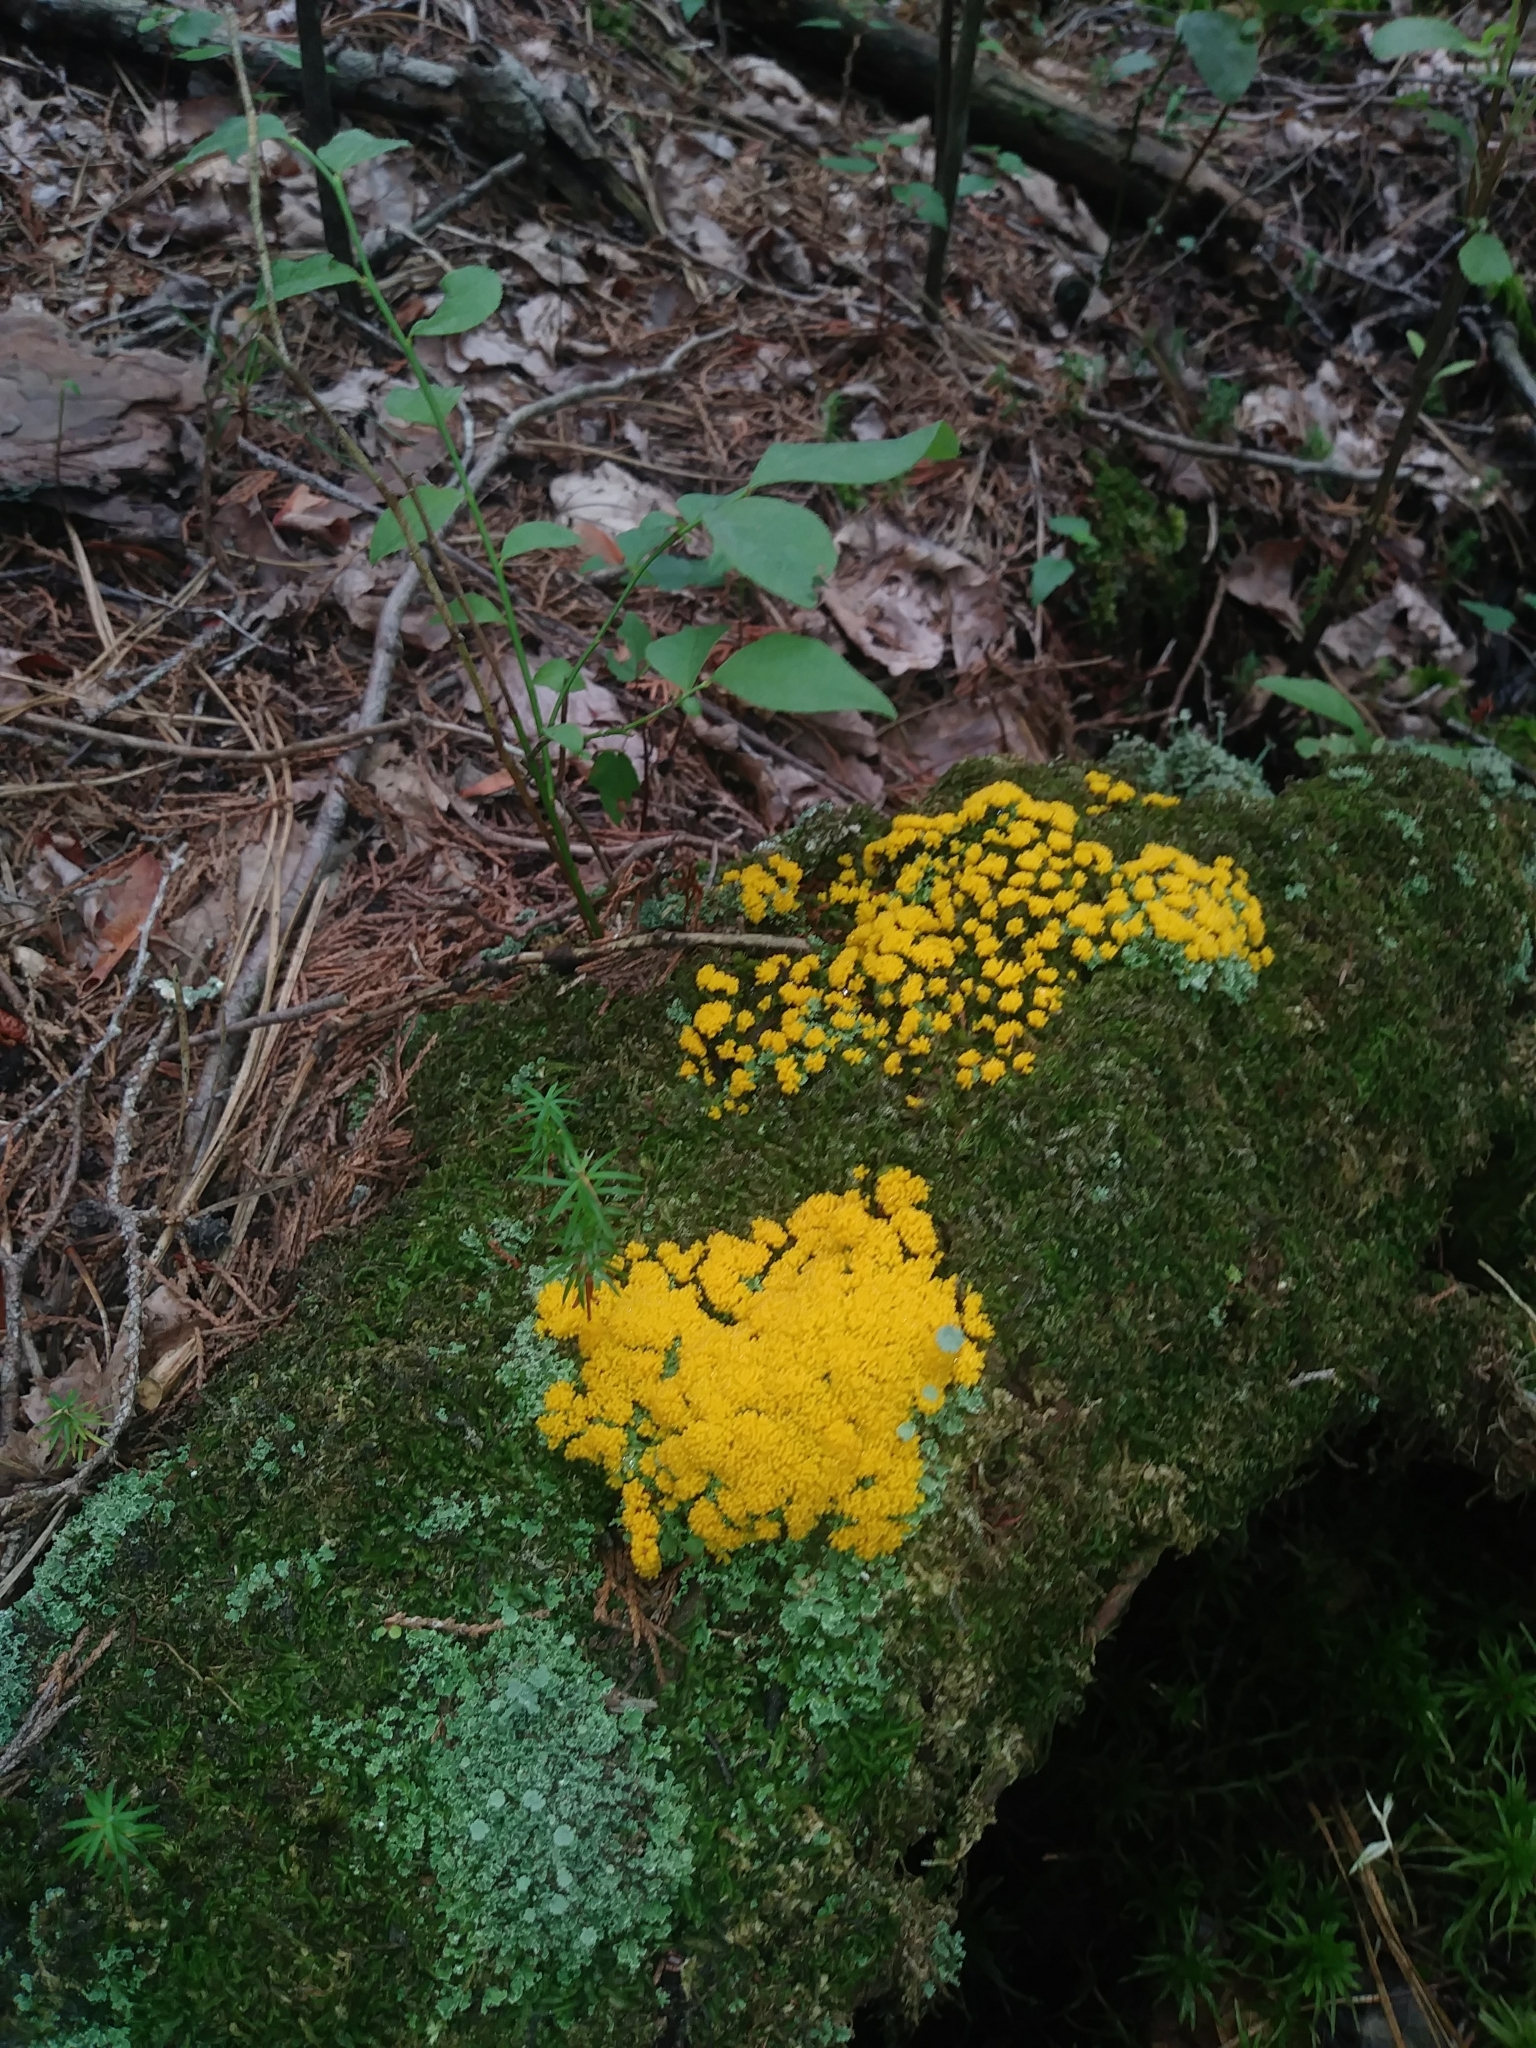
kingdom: Protozoa
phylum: Mycetozoa
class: Myxomycetes
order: Physarales
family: Physaraceae
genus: Fuligo
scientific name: Fuligo septica
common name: Dog vomit slime mold
